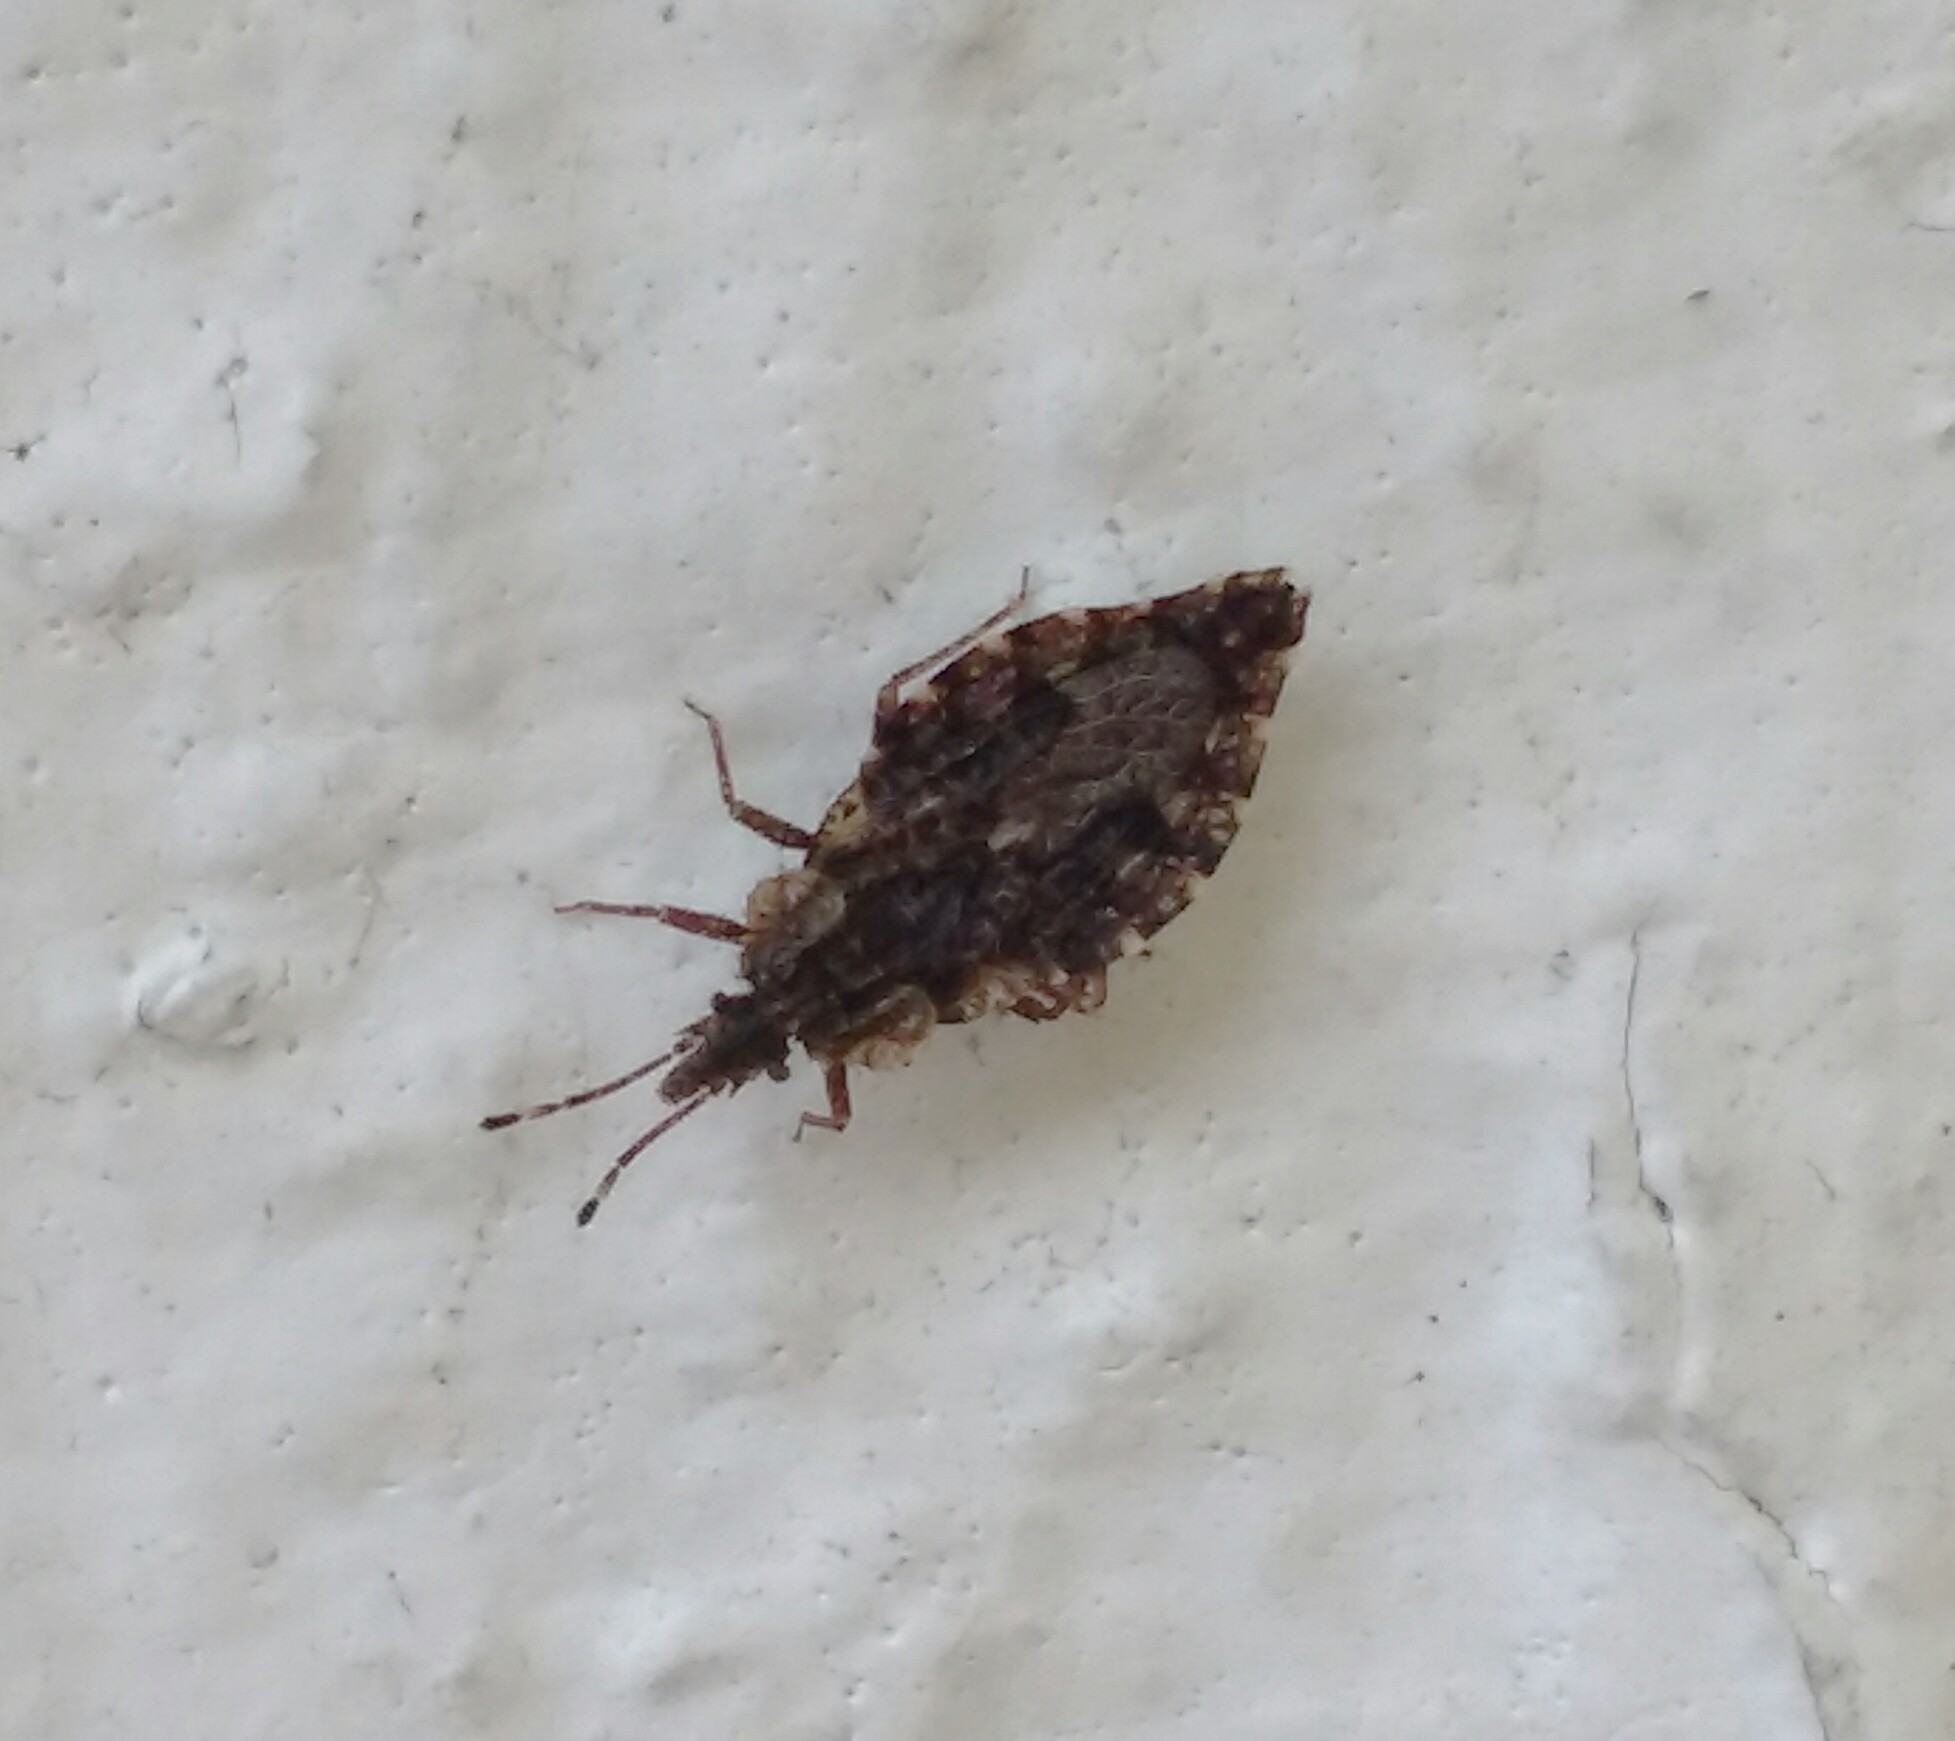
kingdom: Animalia
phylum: Arthropoda
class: Insecta
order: Hemiptera
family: Aradidae
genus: Aradus
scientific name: Aradus betulae
